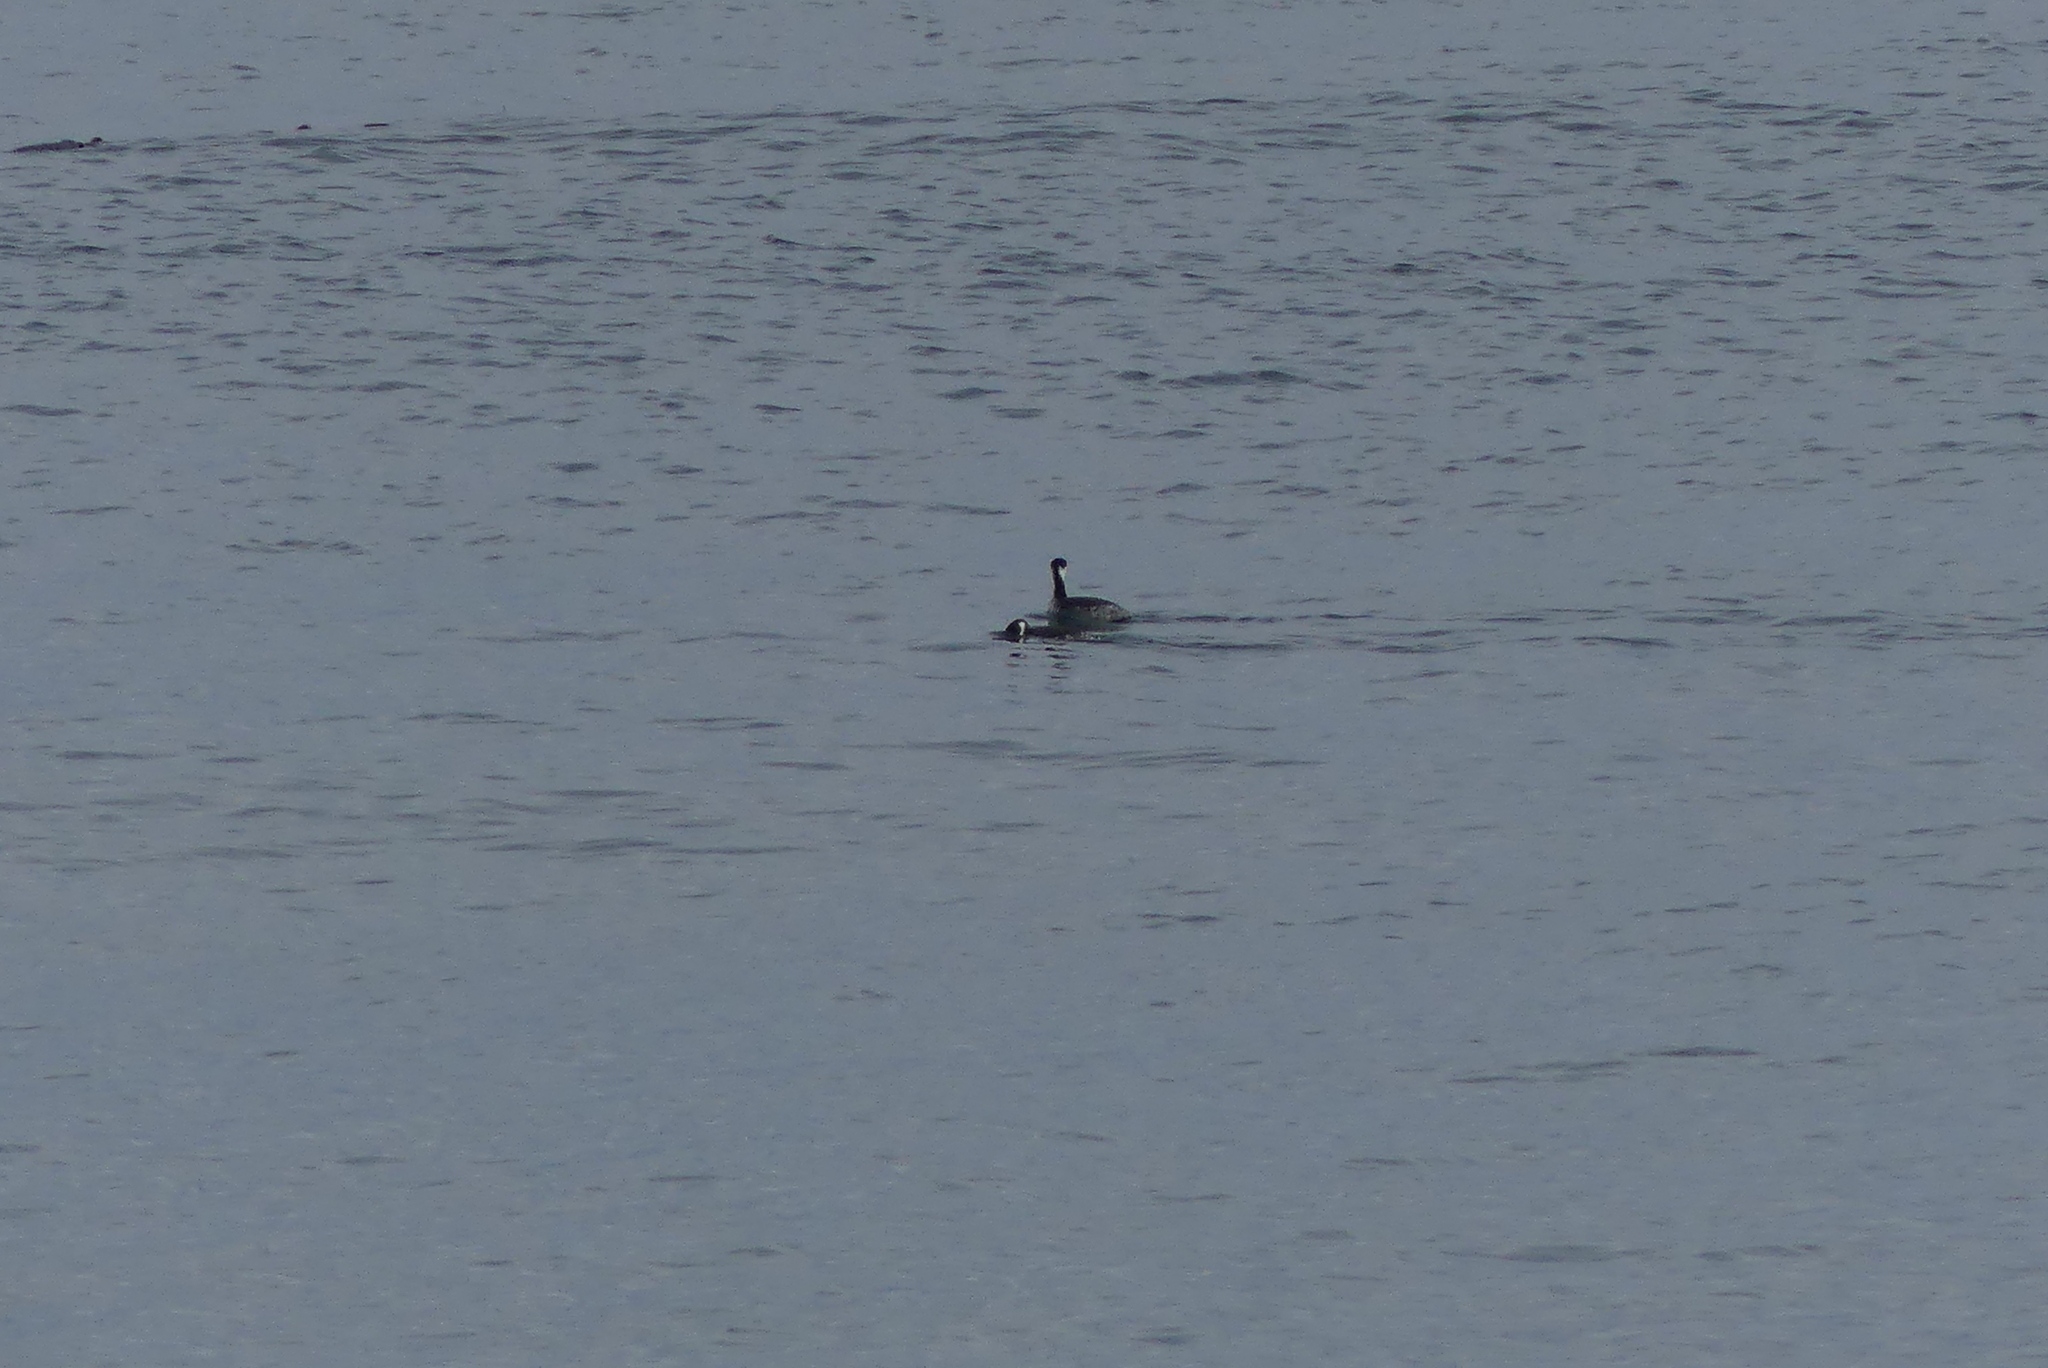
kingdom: Animalia
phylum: Chordata
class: Aves
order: Podicipediformes
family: Podicipedidae
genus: Podiceps
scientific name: Podiceps auritus
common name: Horned grebe
